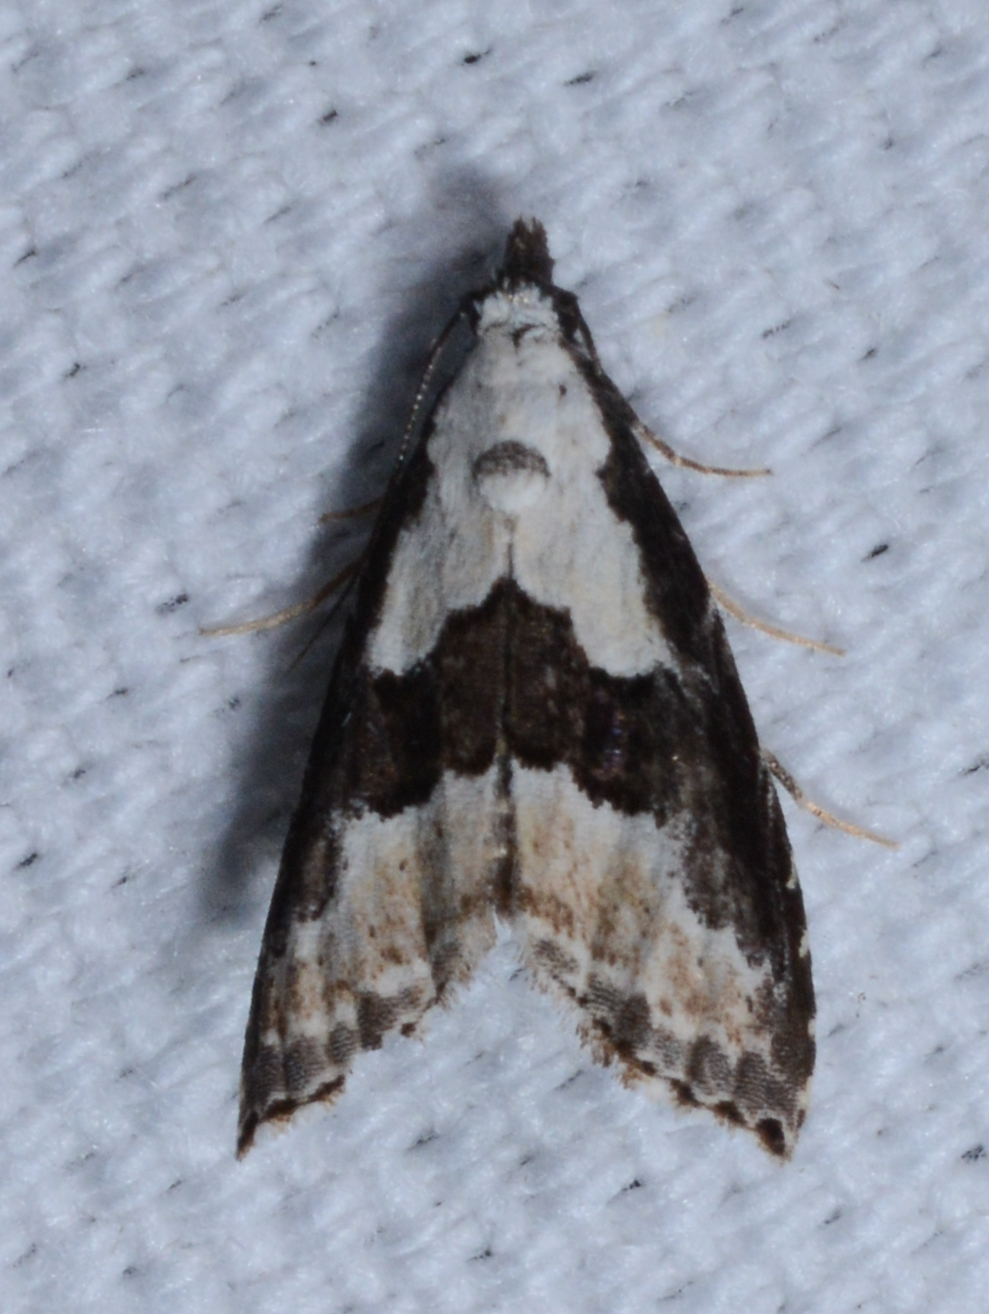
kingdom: Animalia
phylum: Arthropoda
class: Insecta
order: Lepidoptera
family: Noctuidae
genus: Nigetia
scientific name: Nigetia formosalis
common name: Thin-winged owlet
